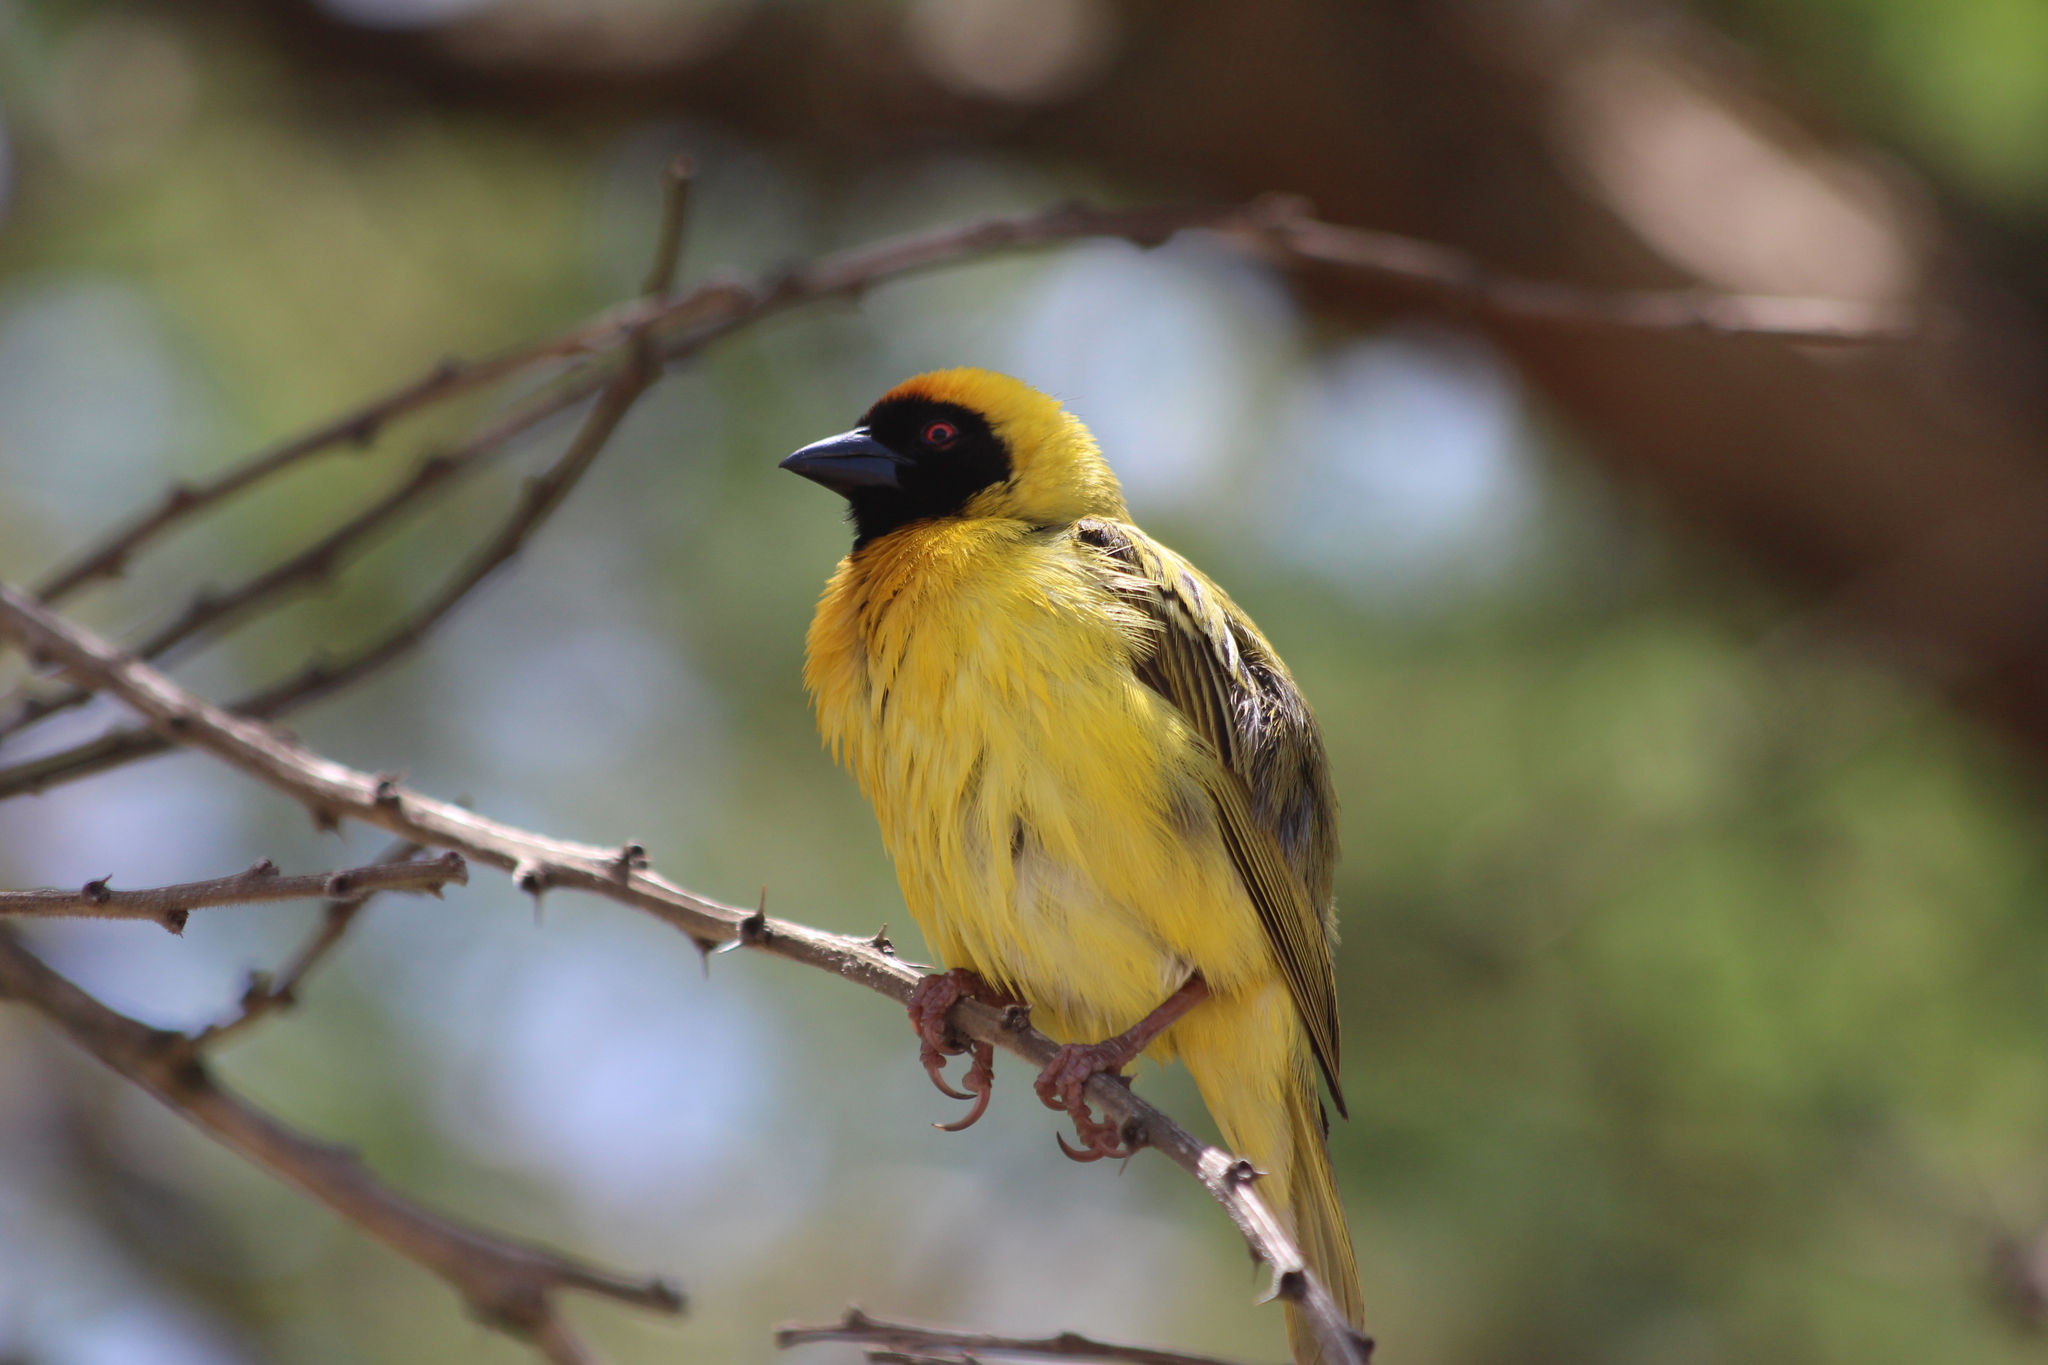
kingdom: Animalia
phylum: Chordata
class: Aves
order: Passeriformes
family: Ploceidae
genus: Ploceus
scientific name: Ploceus velatus
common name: Southern masked weaver
